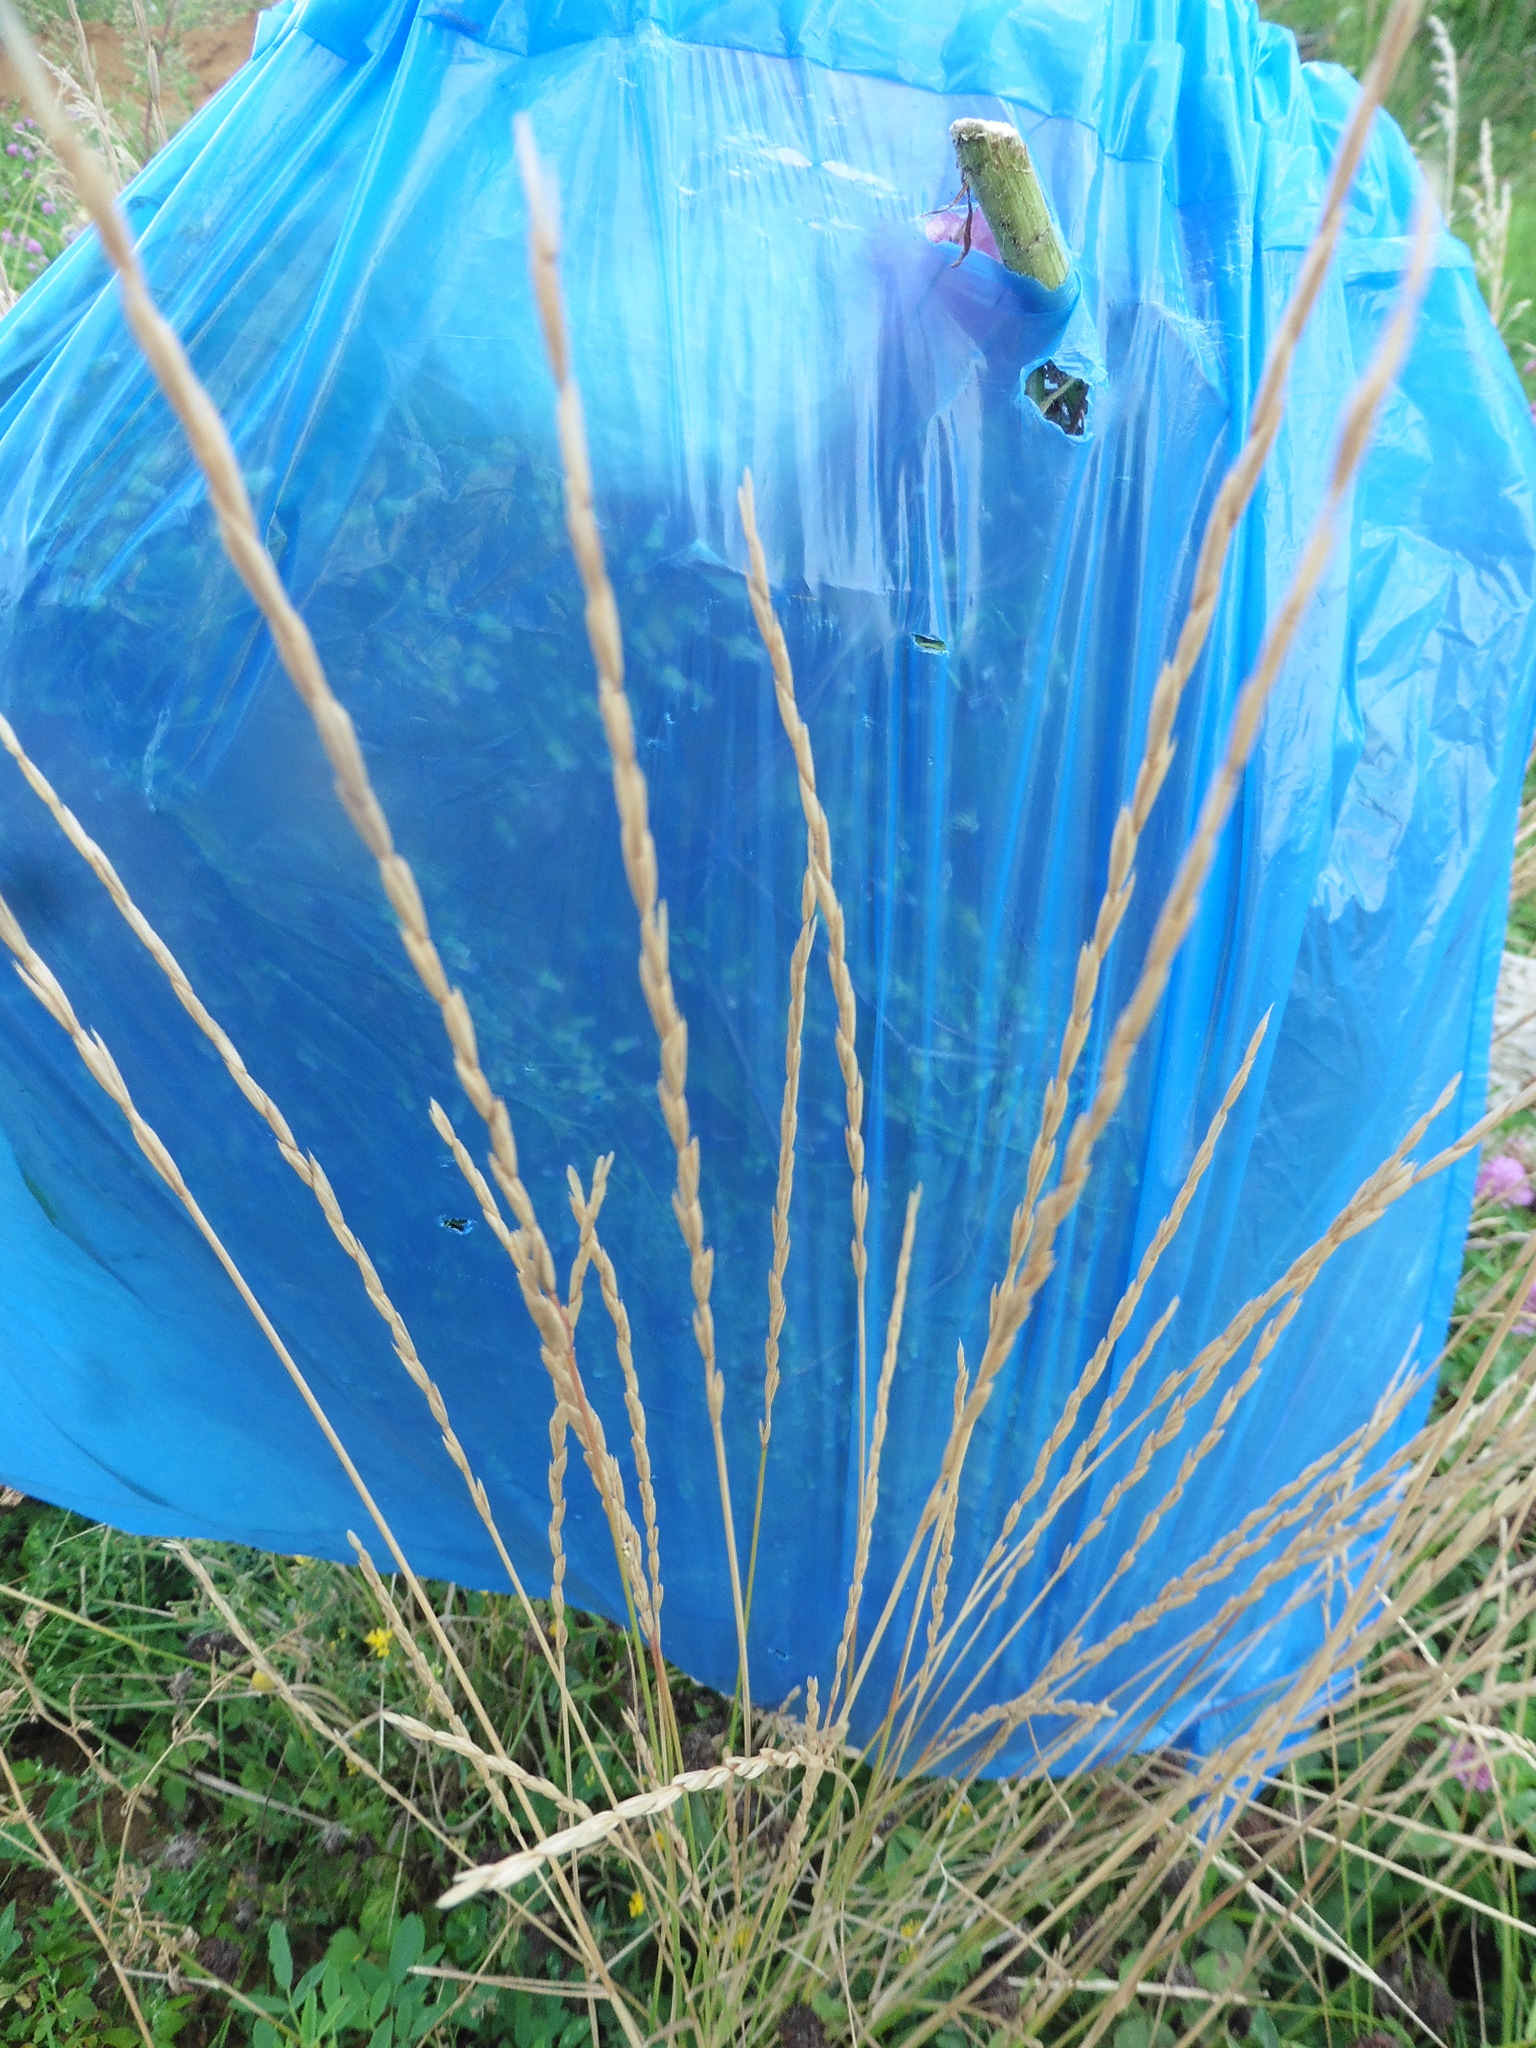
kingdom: Plantae
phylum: Tracheophyta
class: Liliopsida
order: Poales
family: Poaceae
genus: Elymus
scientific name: Elymus violaceus
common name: Arctic wheatgrass
